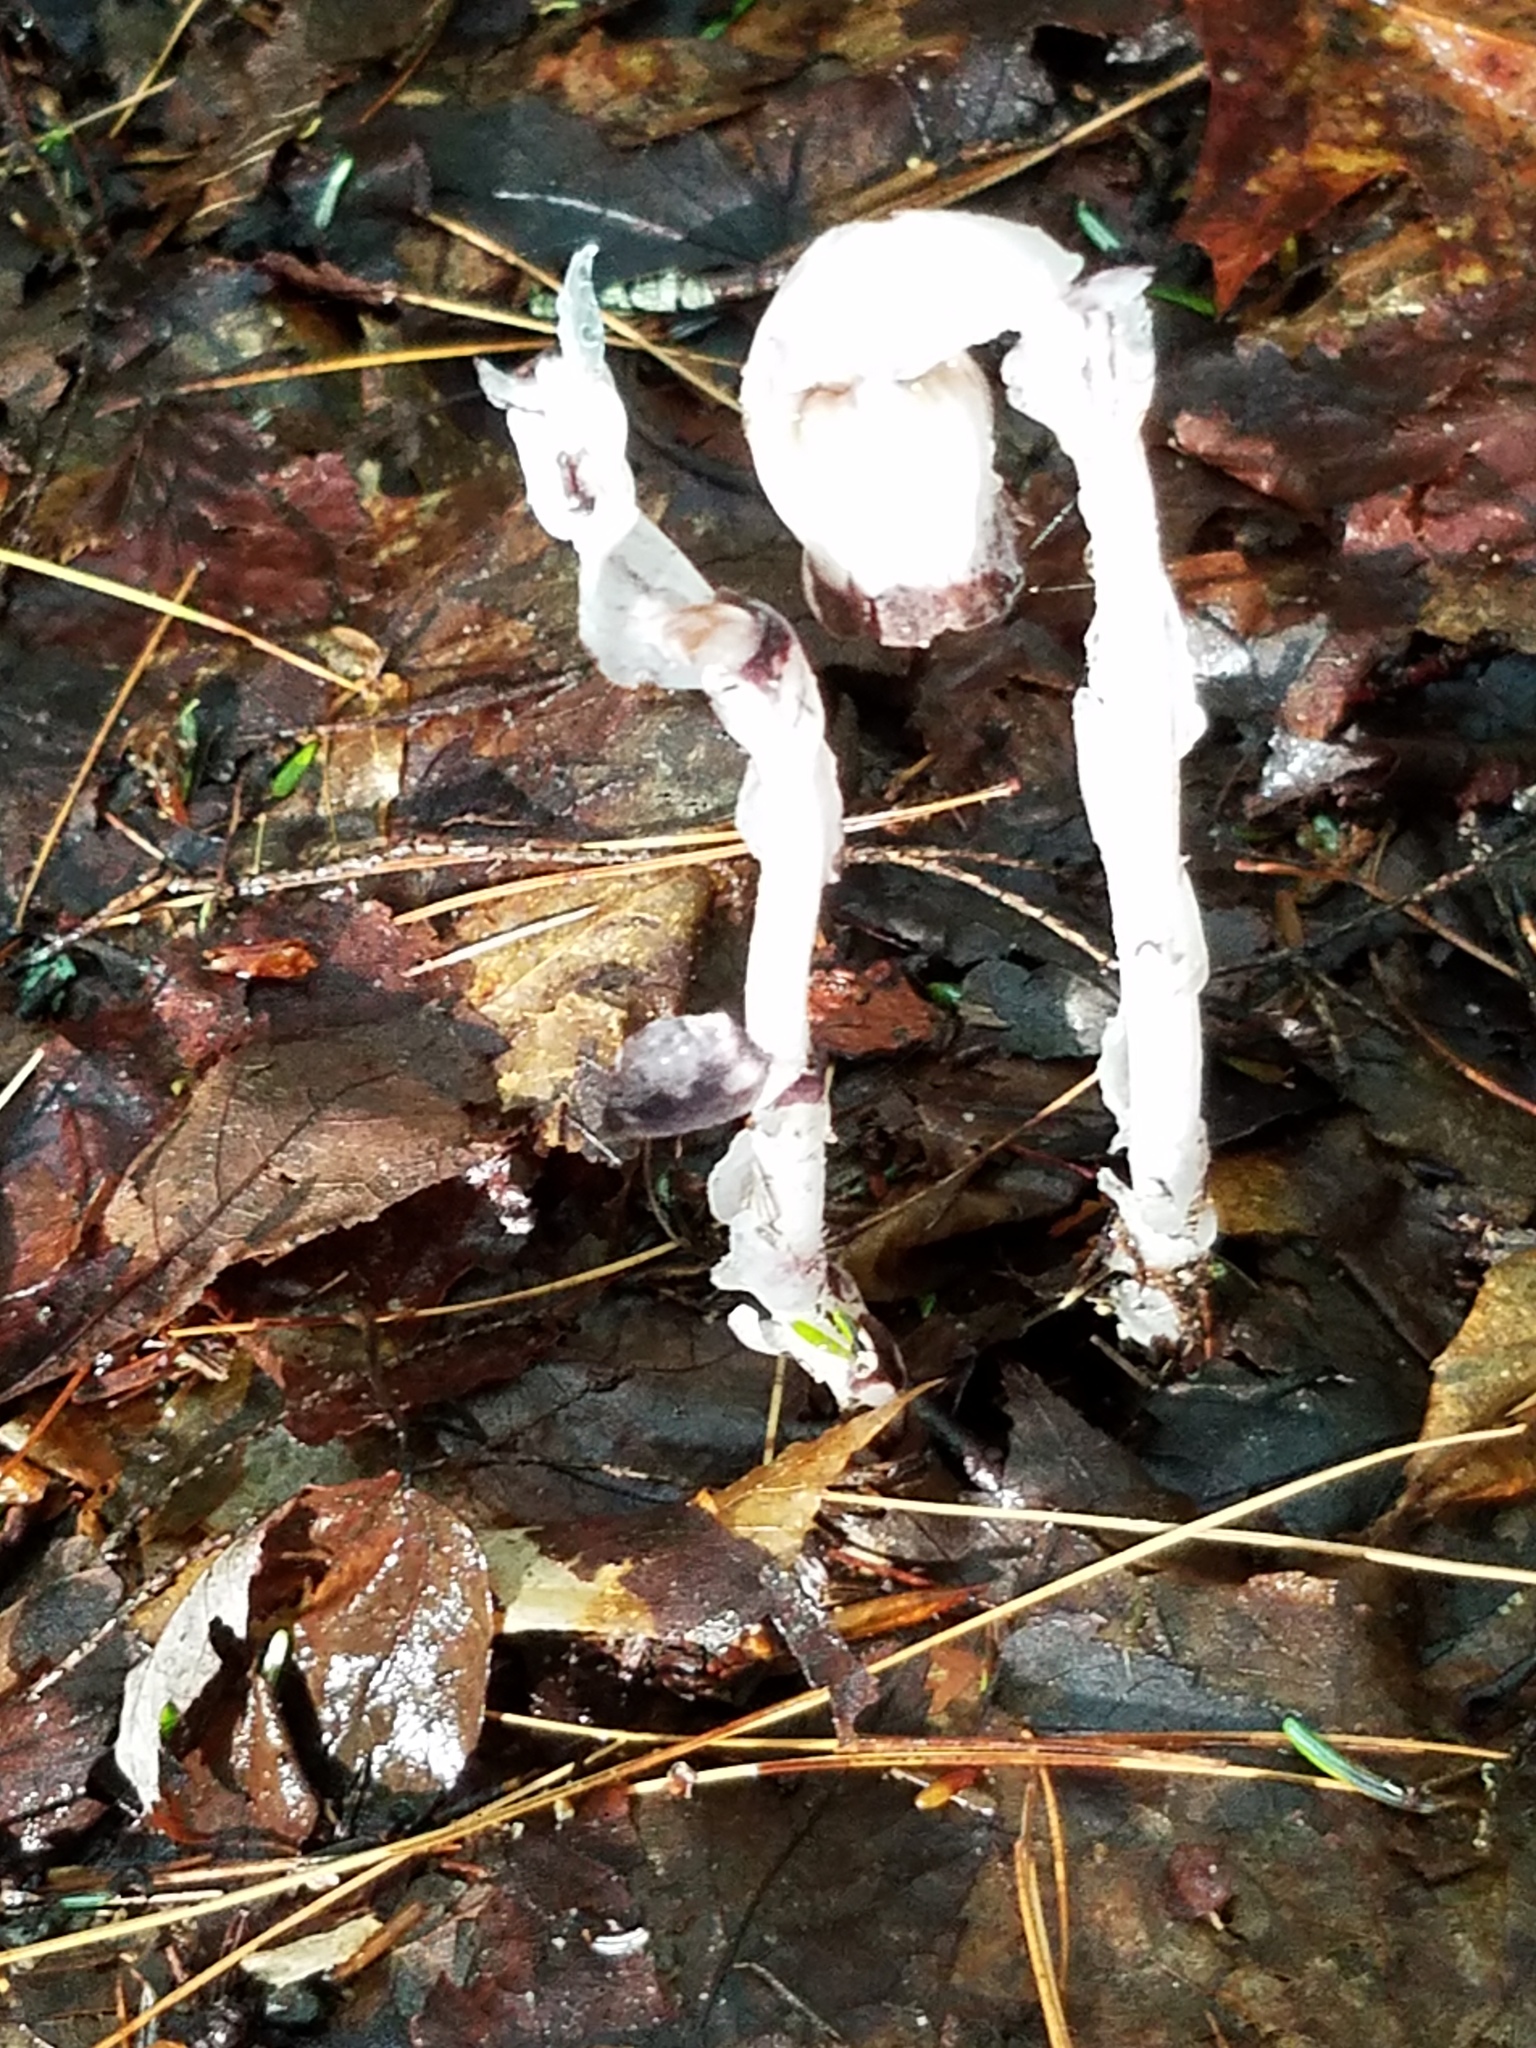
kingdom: Plantae
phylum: Tracheophyta
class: Magnoliopsida
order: Ericales
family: Ericaceae
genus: Monotropa
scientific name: Monotropa uniflora
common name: Convulsion root
